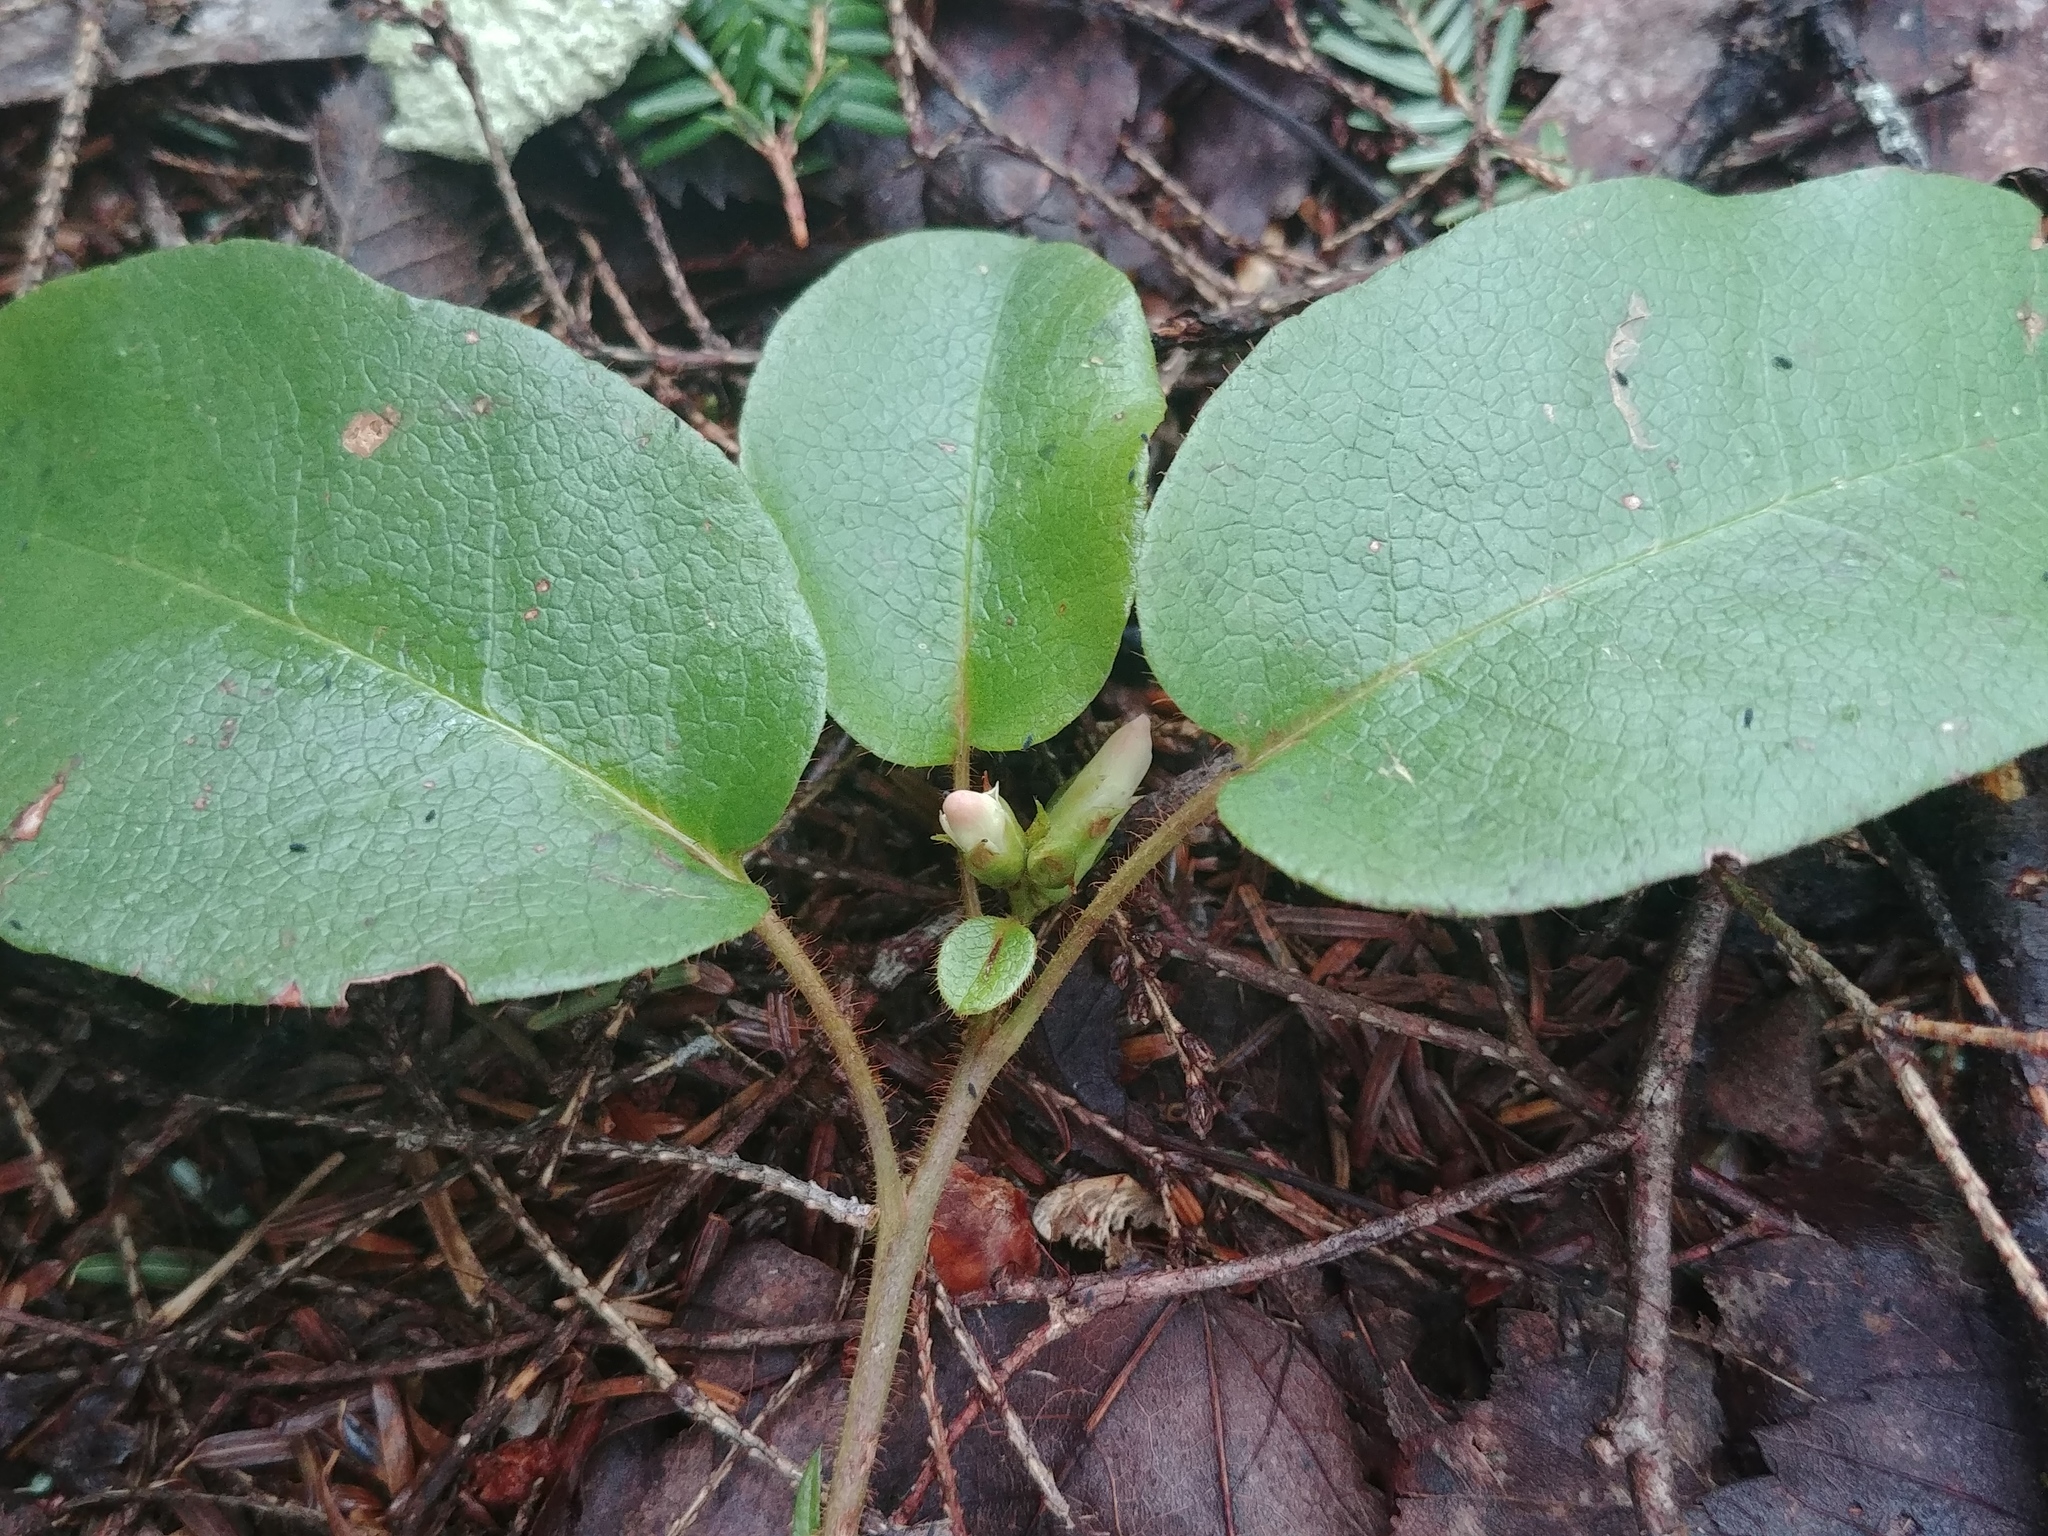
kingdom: Plantae
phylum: Tracheophyta
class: Magnoliopsida
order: Ericales
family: Ericaceae
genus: Epigaea
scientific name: Epigaea repens
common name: Gravelroot
